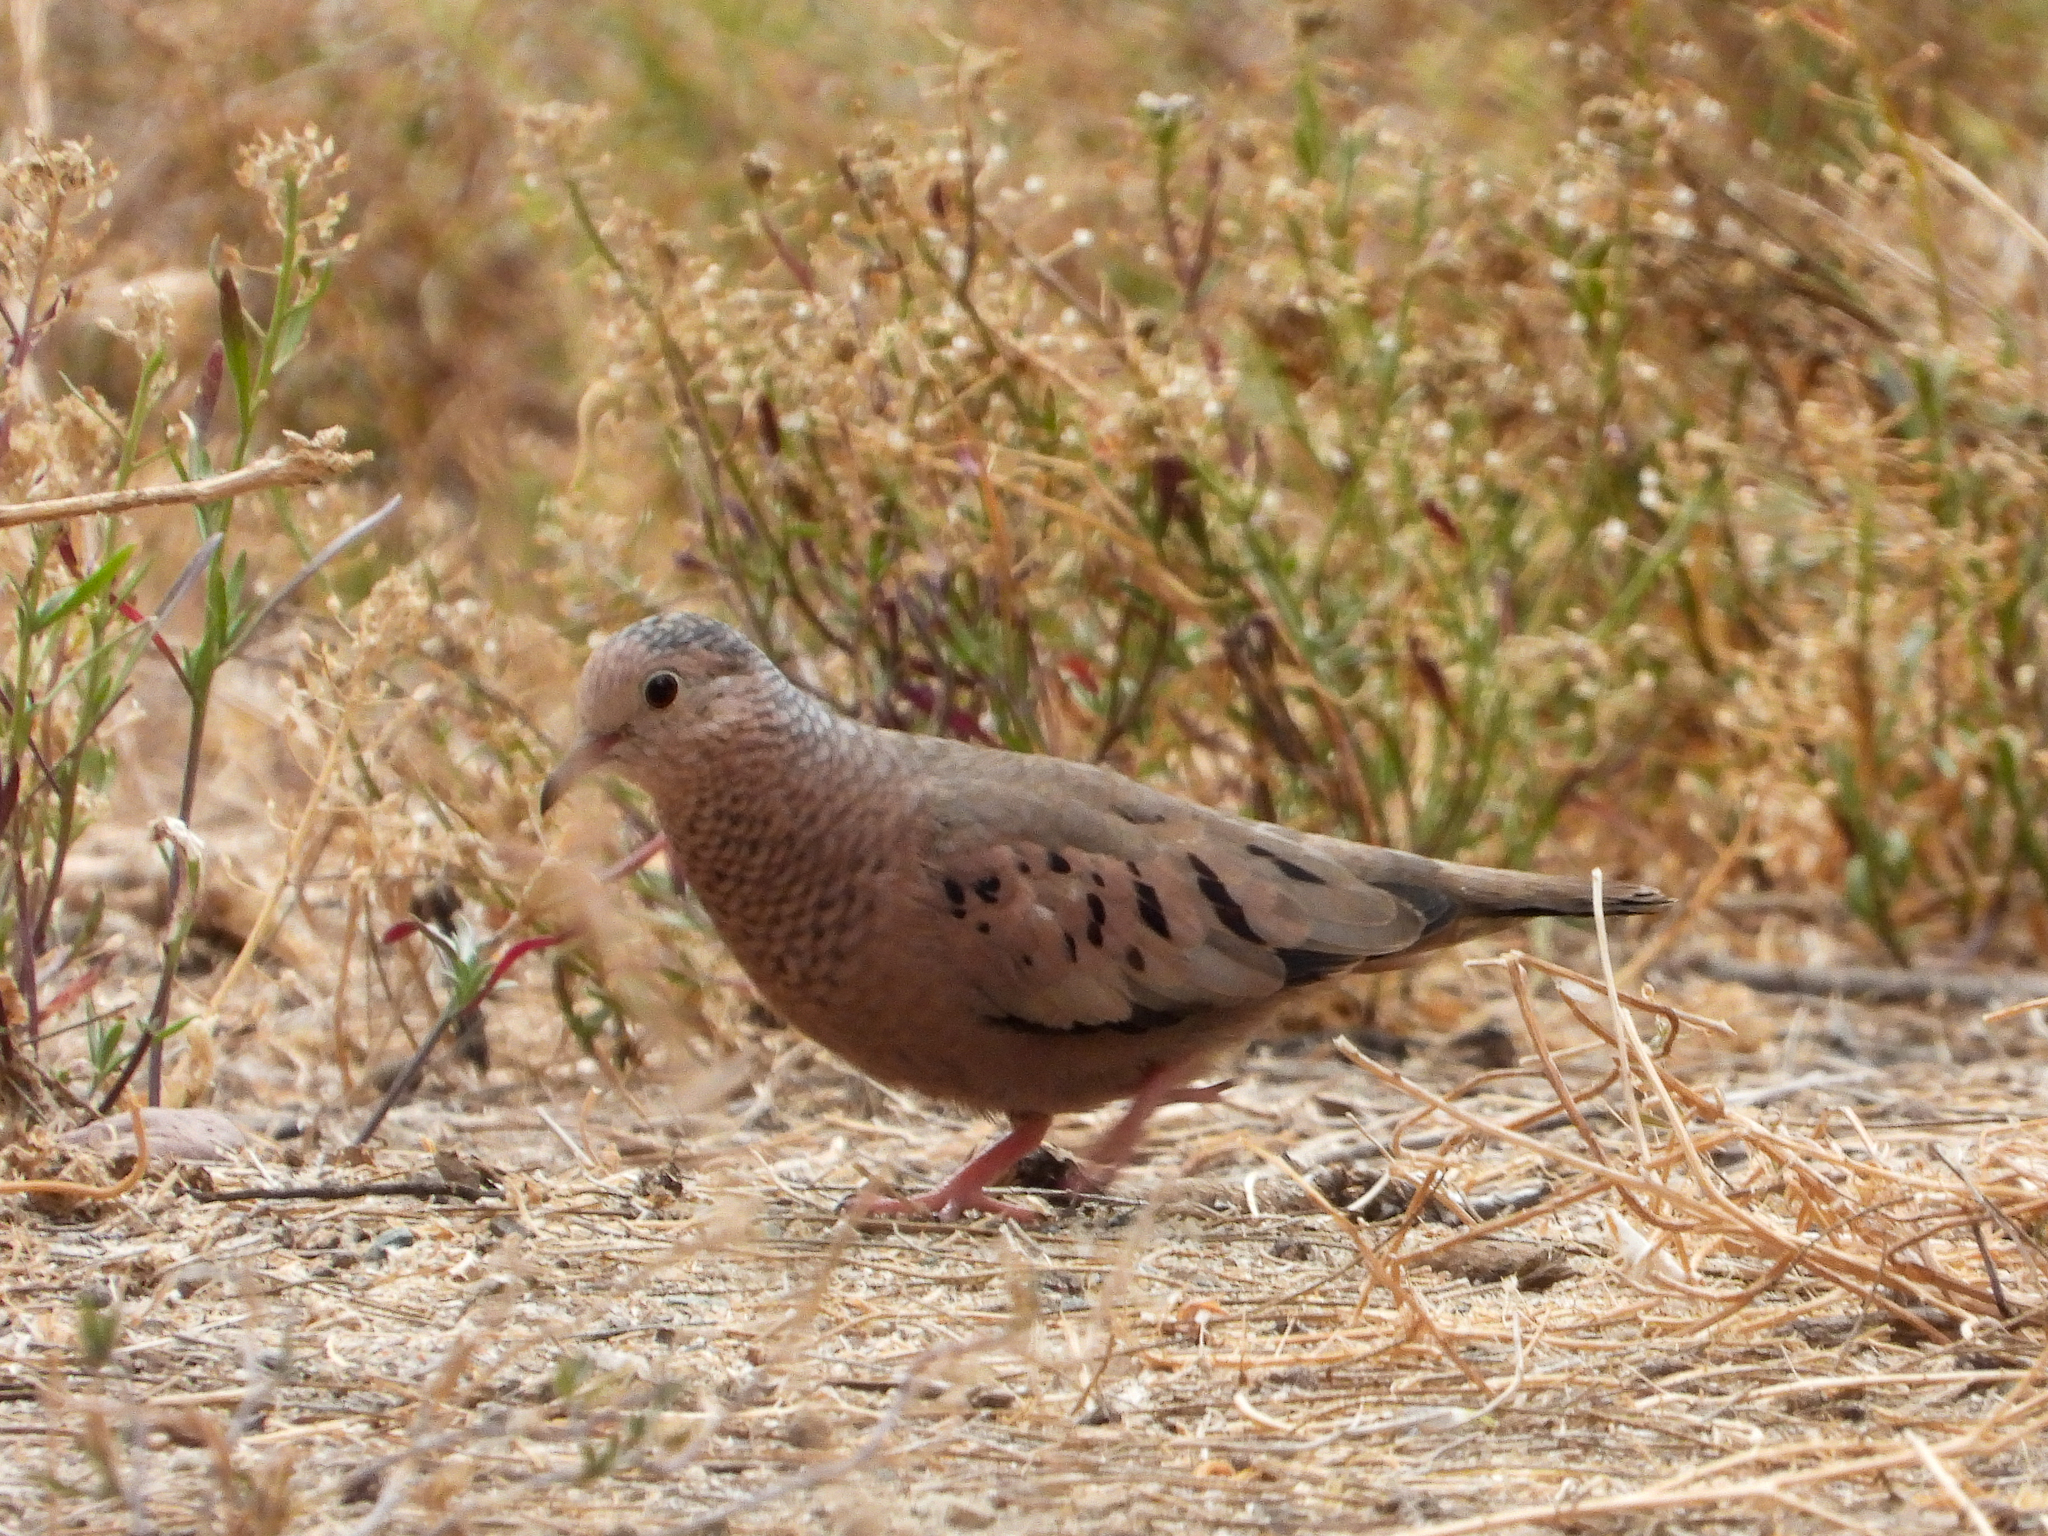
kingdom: Animalia
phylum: Chordata
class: Aves
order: Columbiformes
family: Columbidae
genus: Columbina
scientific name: Columbina passerina
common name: Common ground-dove
